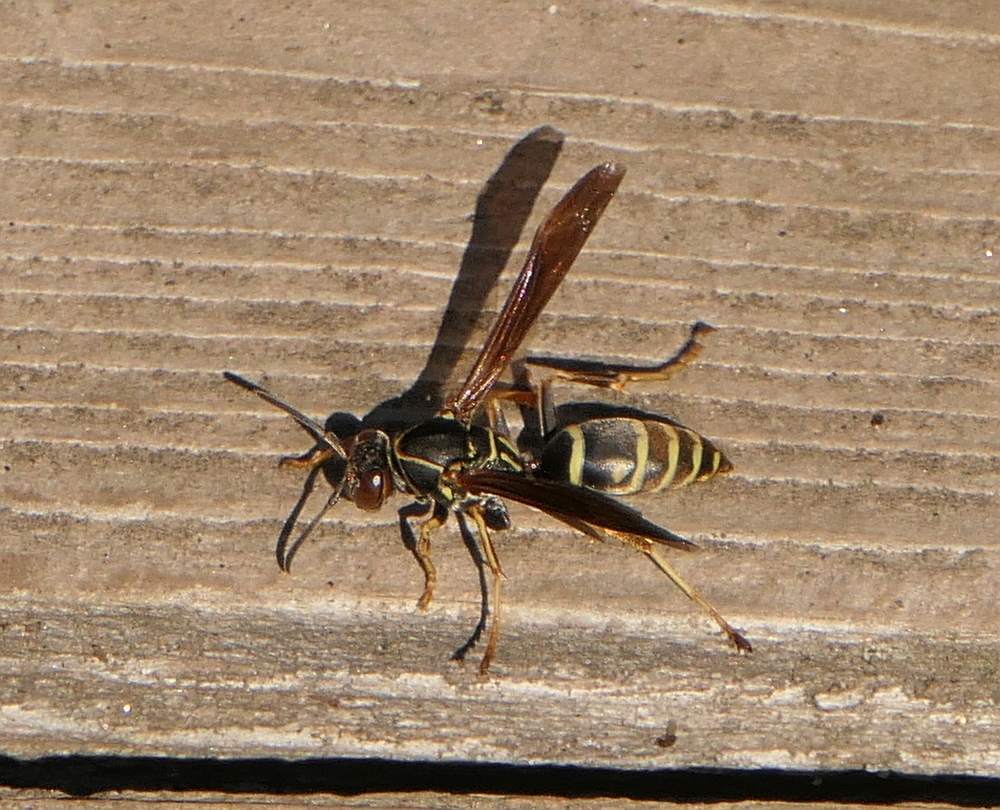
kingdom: Animalia
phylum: Arthropoda
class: Insecta
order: Hymenoptera
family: Eumenidae
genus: Polistes
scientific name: Polistes fuscatus
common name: Dark paper wasp
